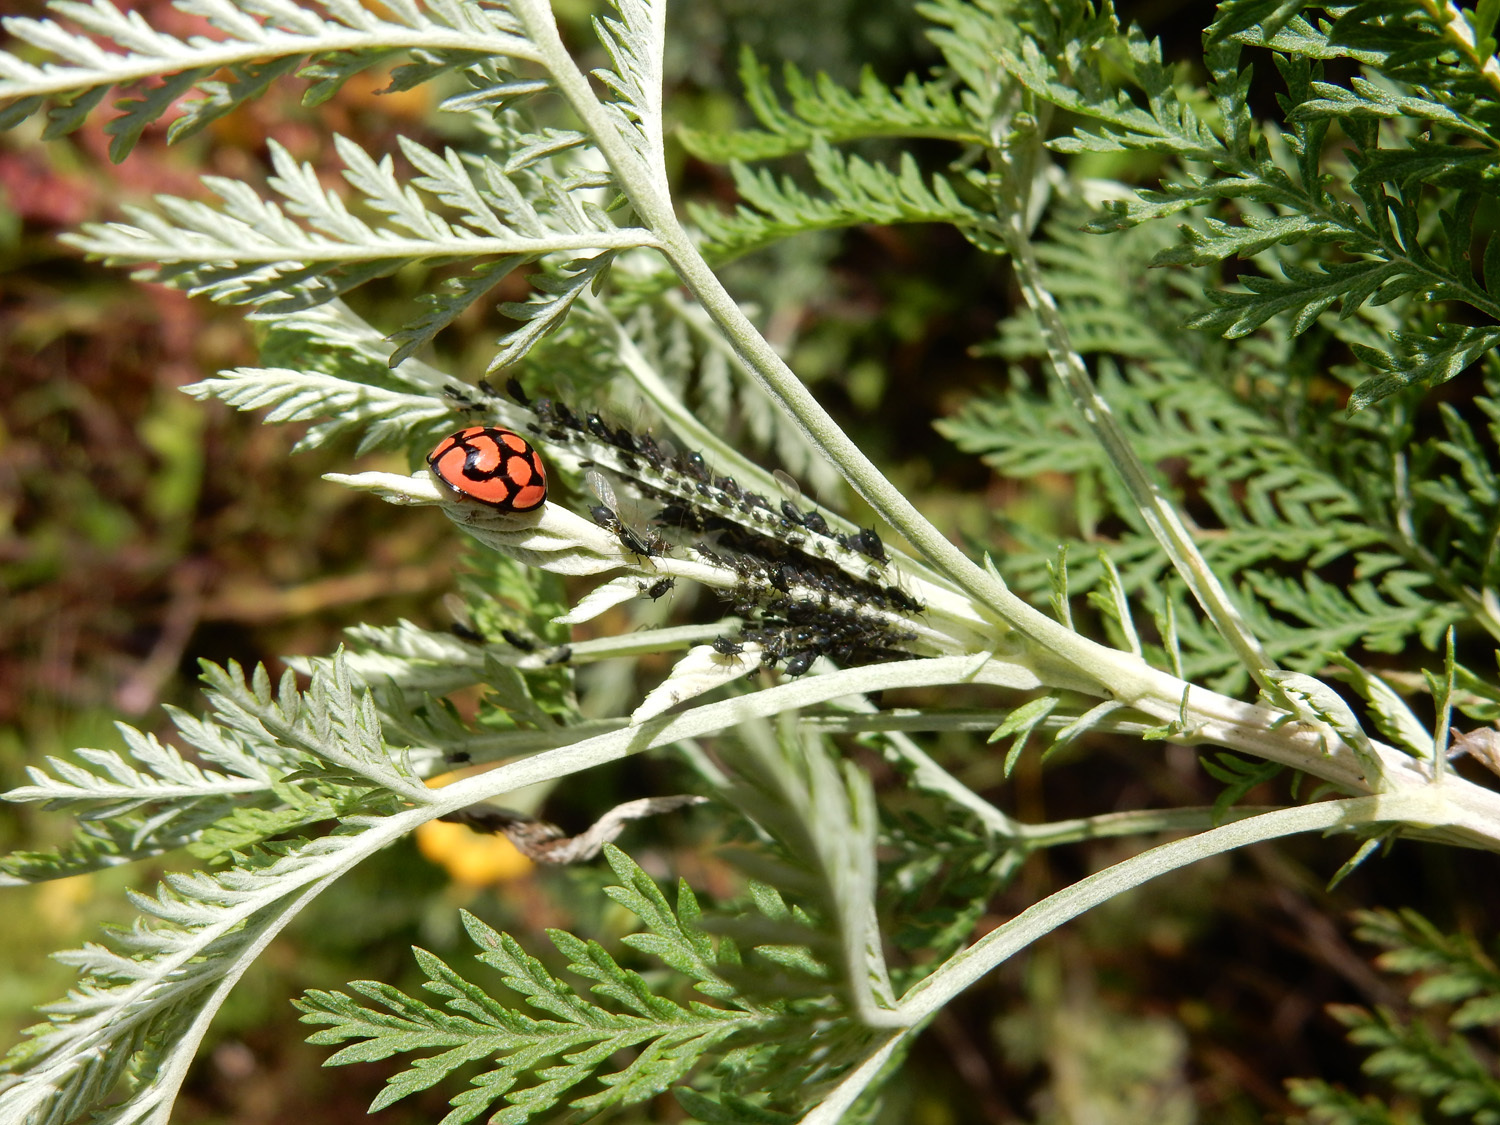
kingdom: Plantae
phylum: Tracheophyta
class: Magnoliopsida
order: Asterales
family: Asteraceae
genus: Artemisia
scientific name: Artemisia afra
